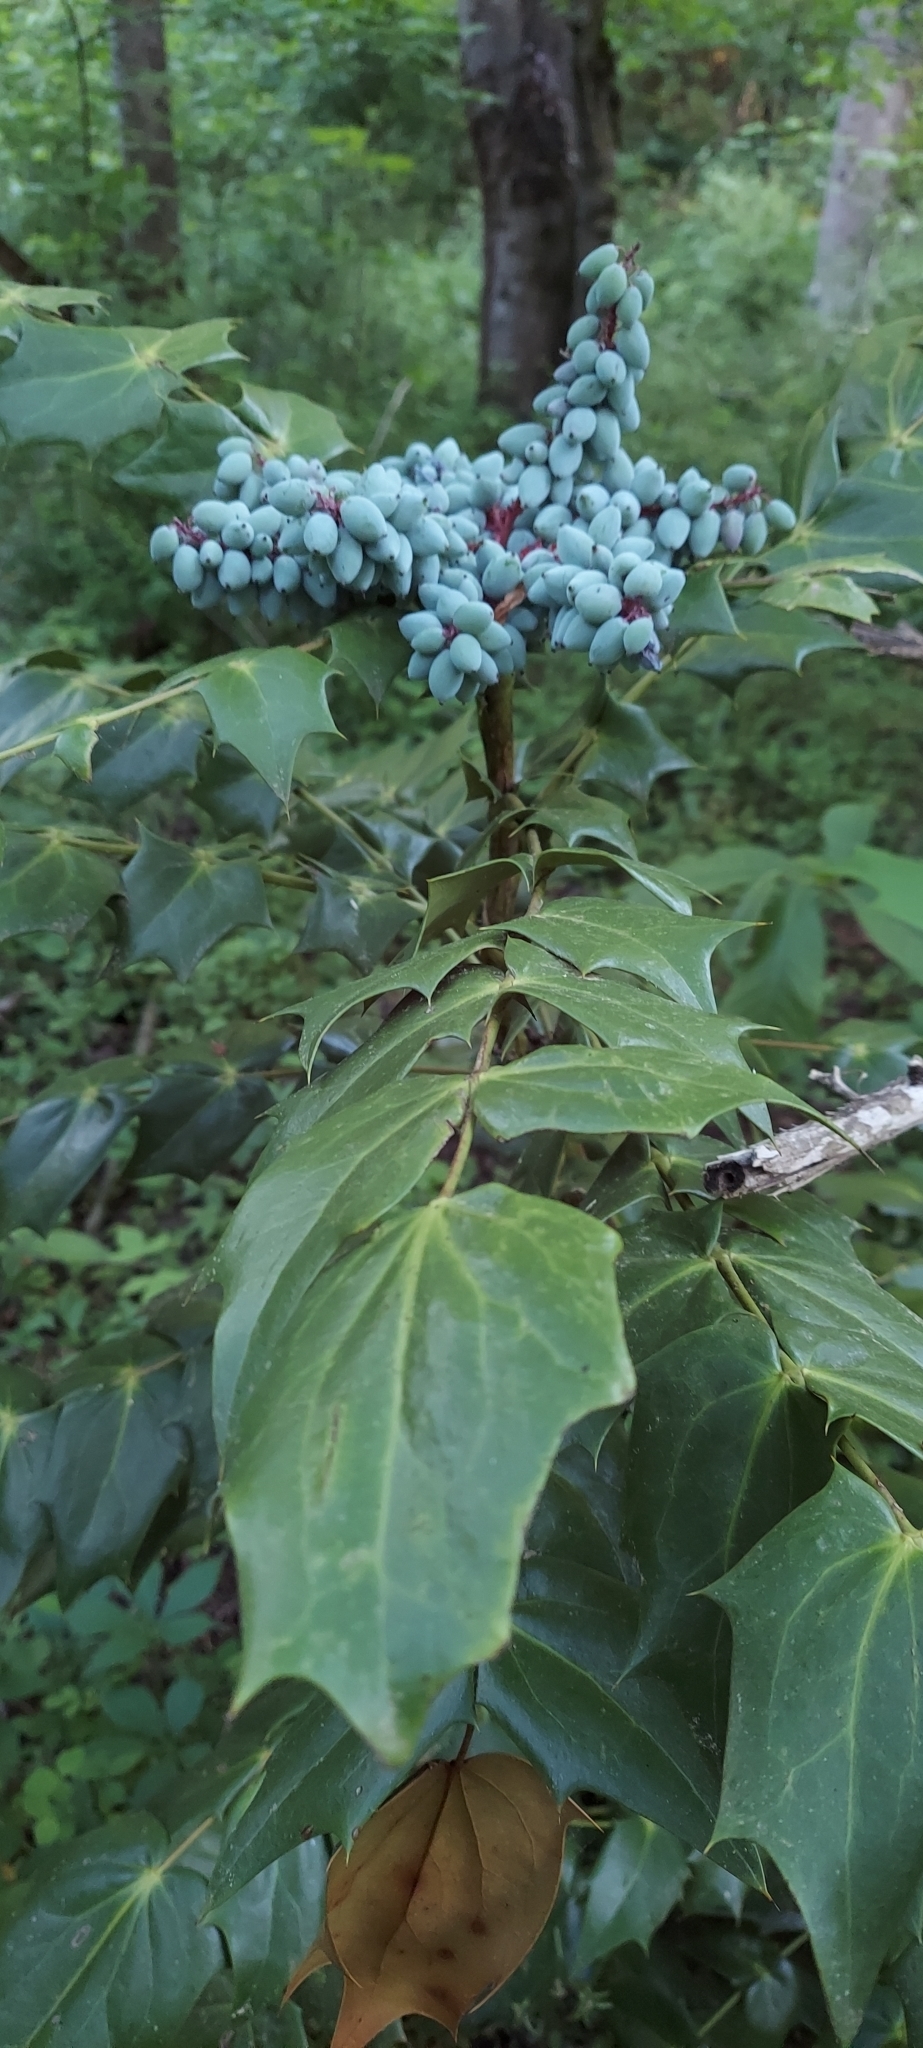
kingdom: Plantae
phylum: Tracheophyta
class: Magnoliopsida
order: Ranunculales
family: Berberidaceae
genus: Mahonia
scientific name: Mahonia bealei
